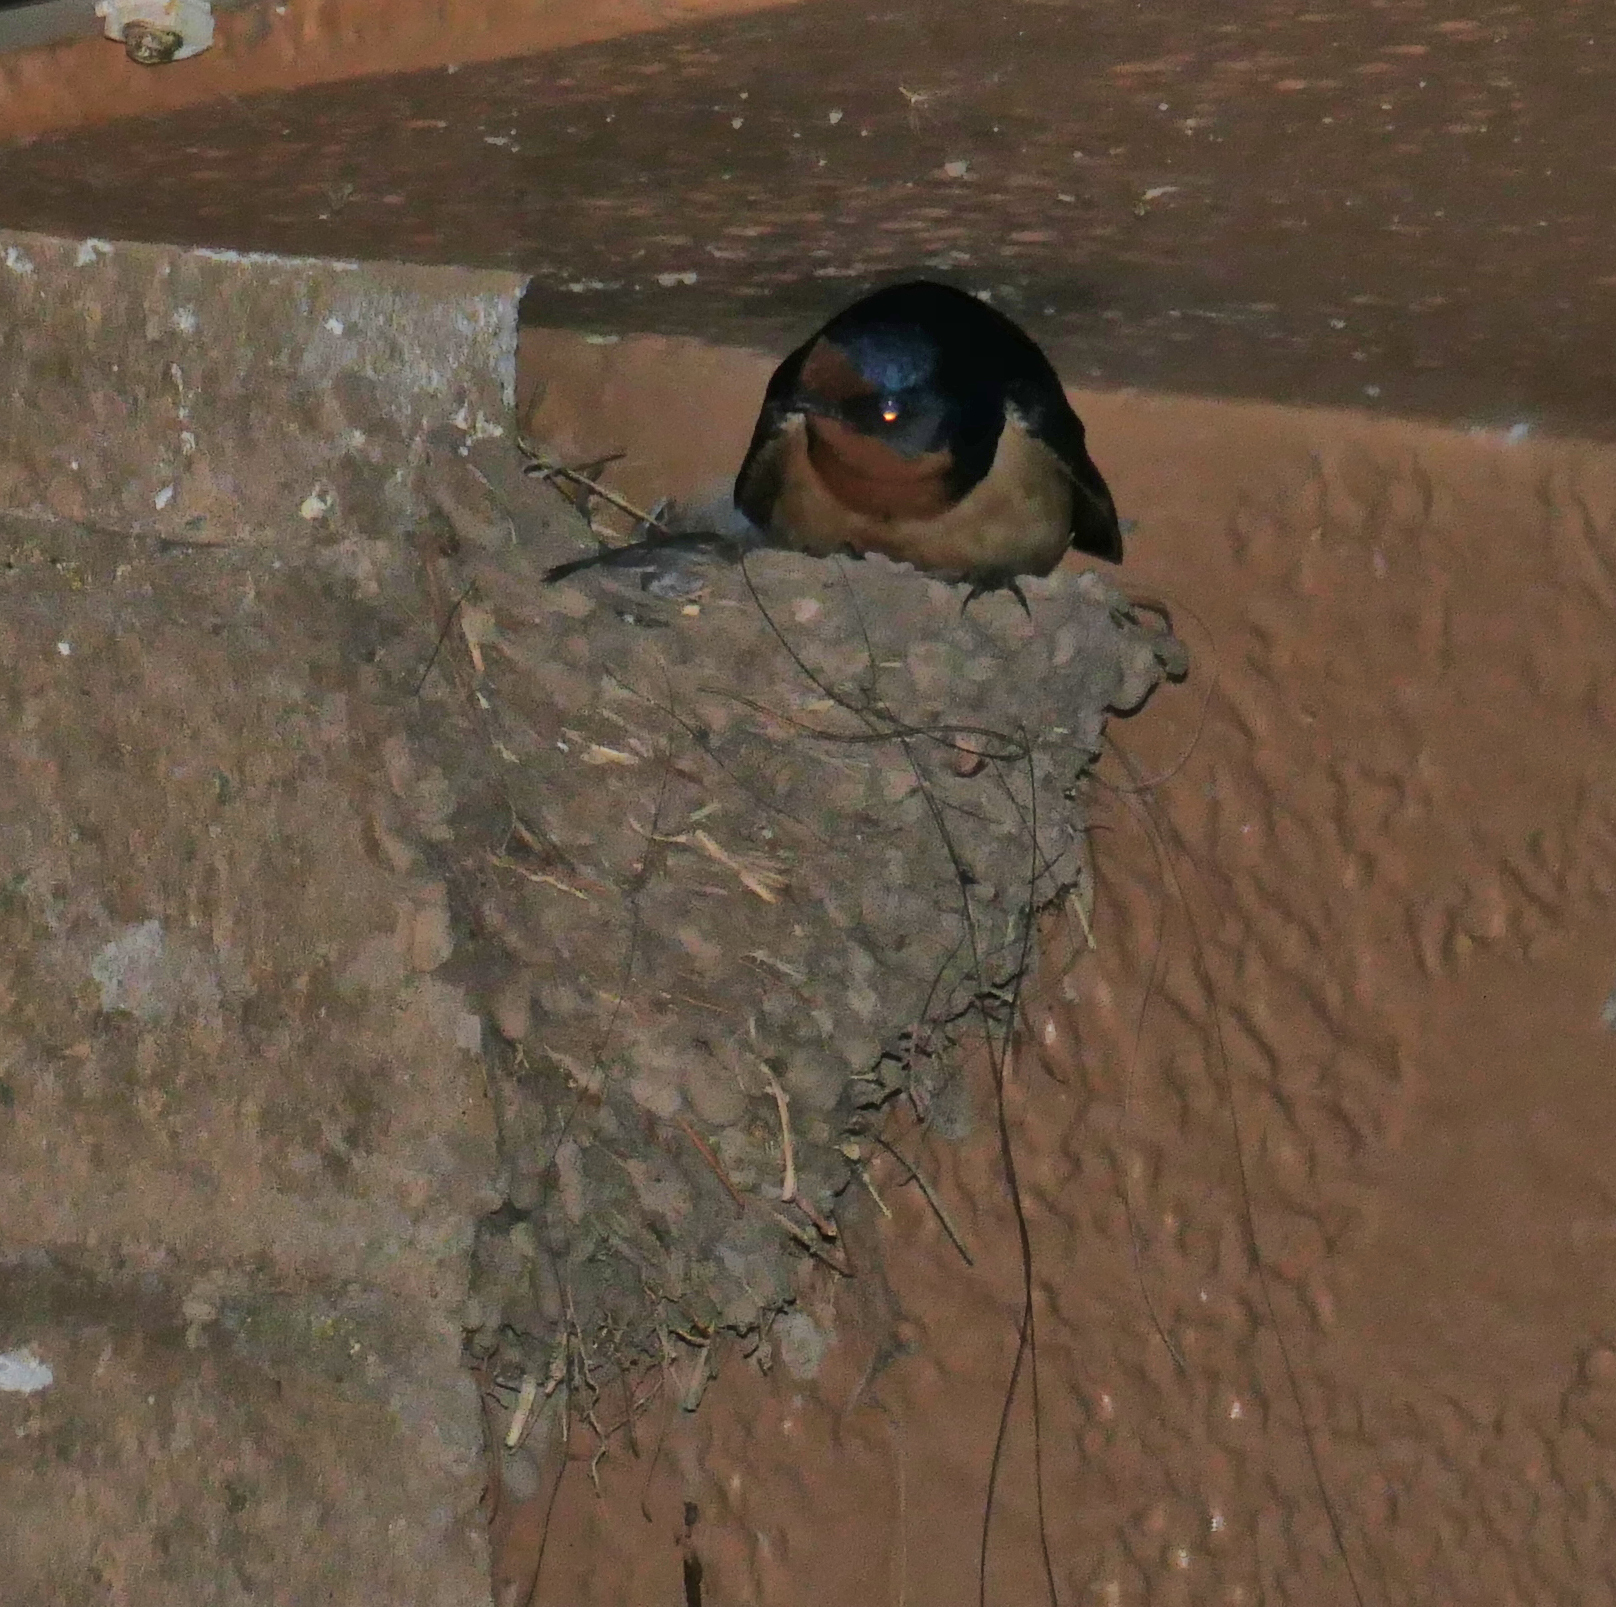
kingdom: Animalia
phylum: Chordata
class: Aves
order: Passeriformes
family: Hirundinidae
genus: Hirundo
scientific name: Hirundo rustica
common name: Barn swallow
